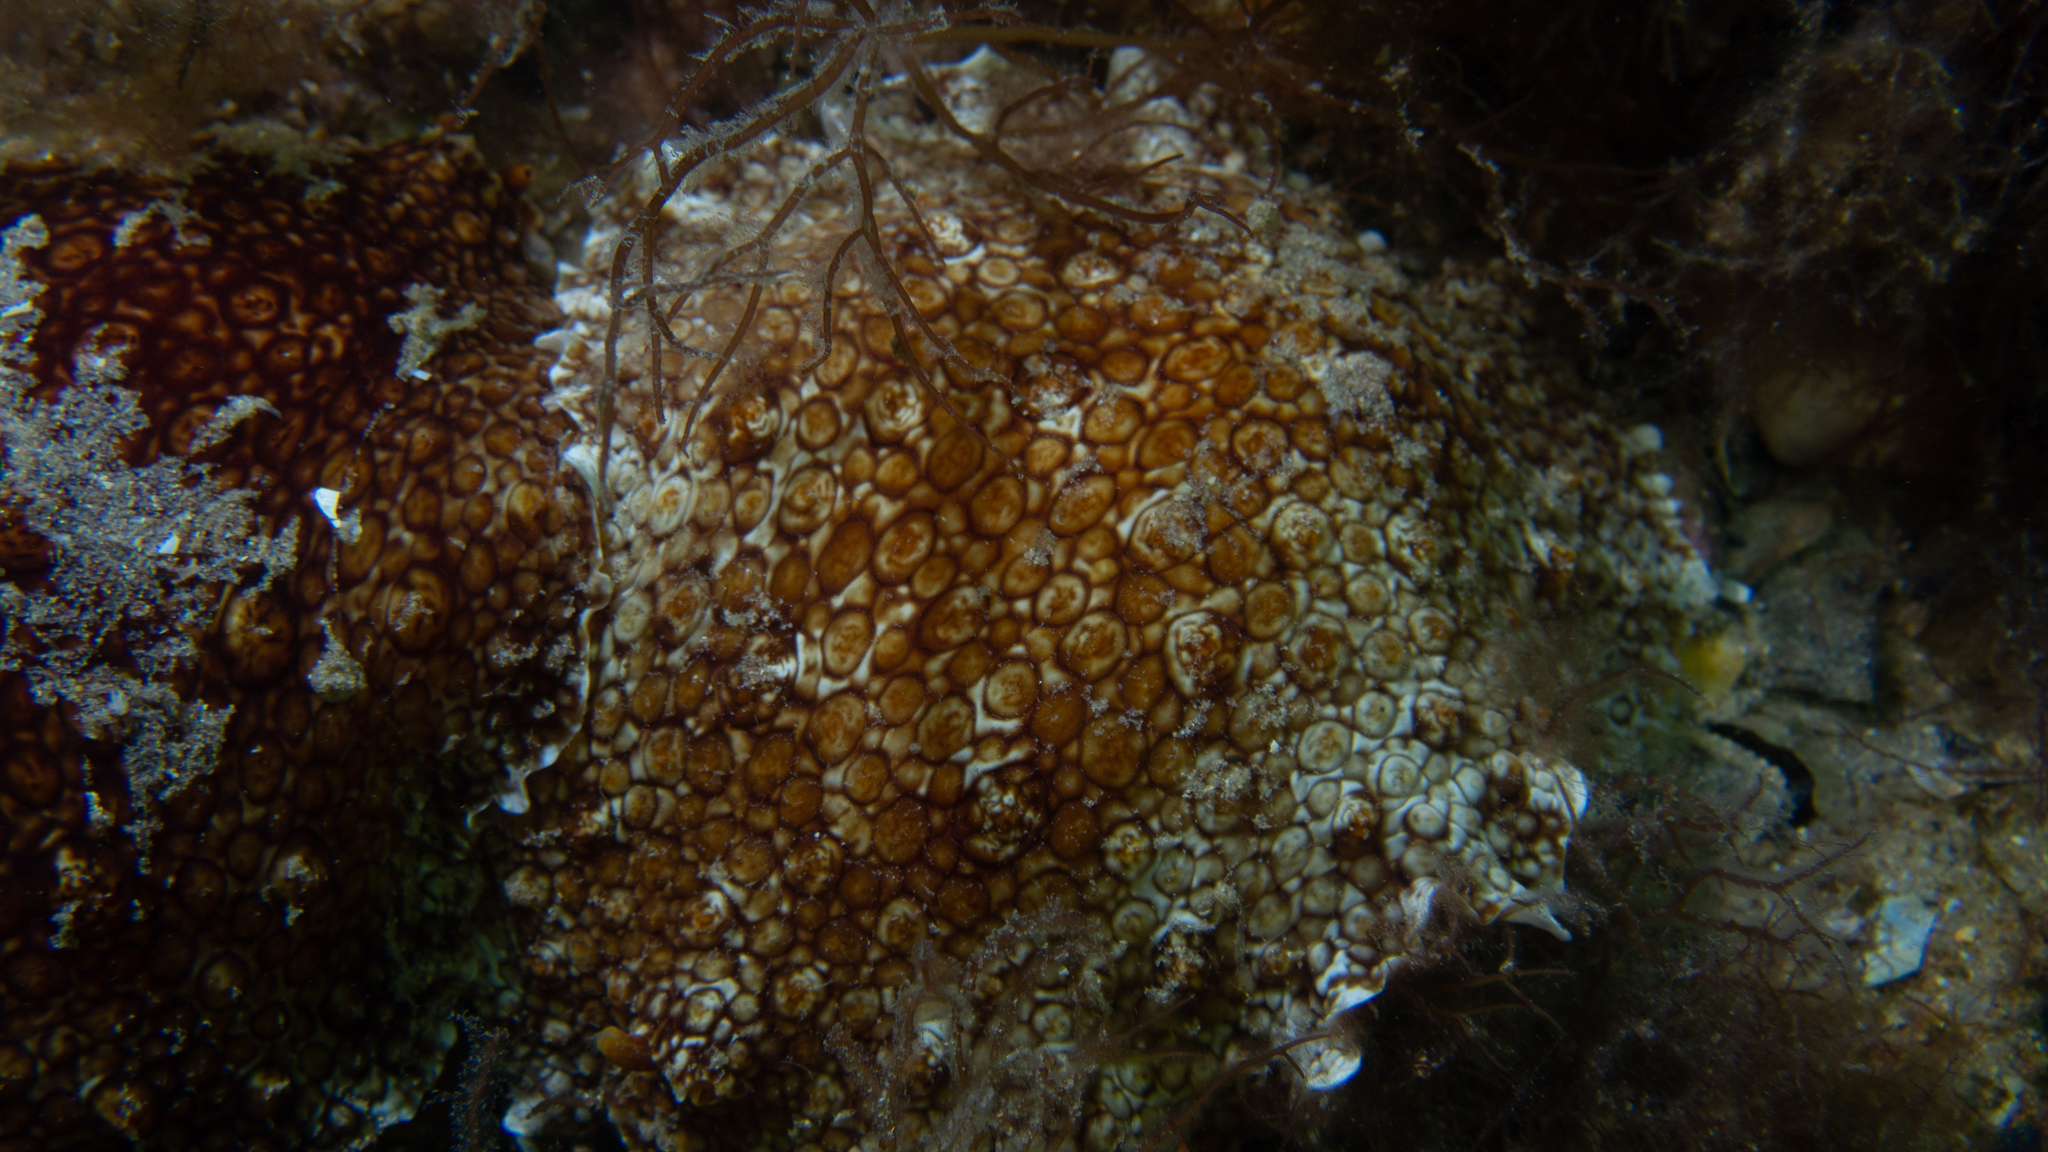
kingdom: Animalia
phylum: Mollusca
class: Gastropoda
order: Pleurobranchida
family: Pleurobranchidae
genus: Pleurobranchus
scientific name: Pleurobranchus hilli
